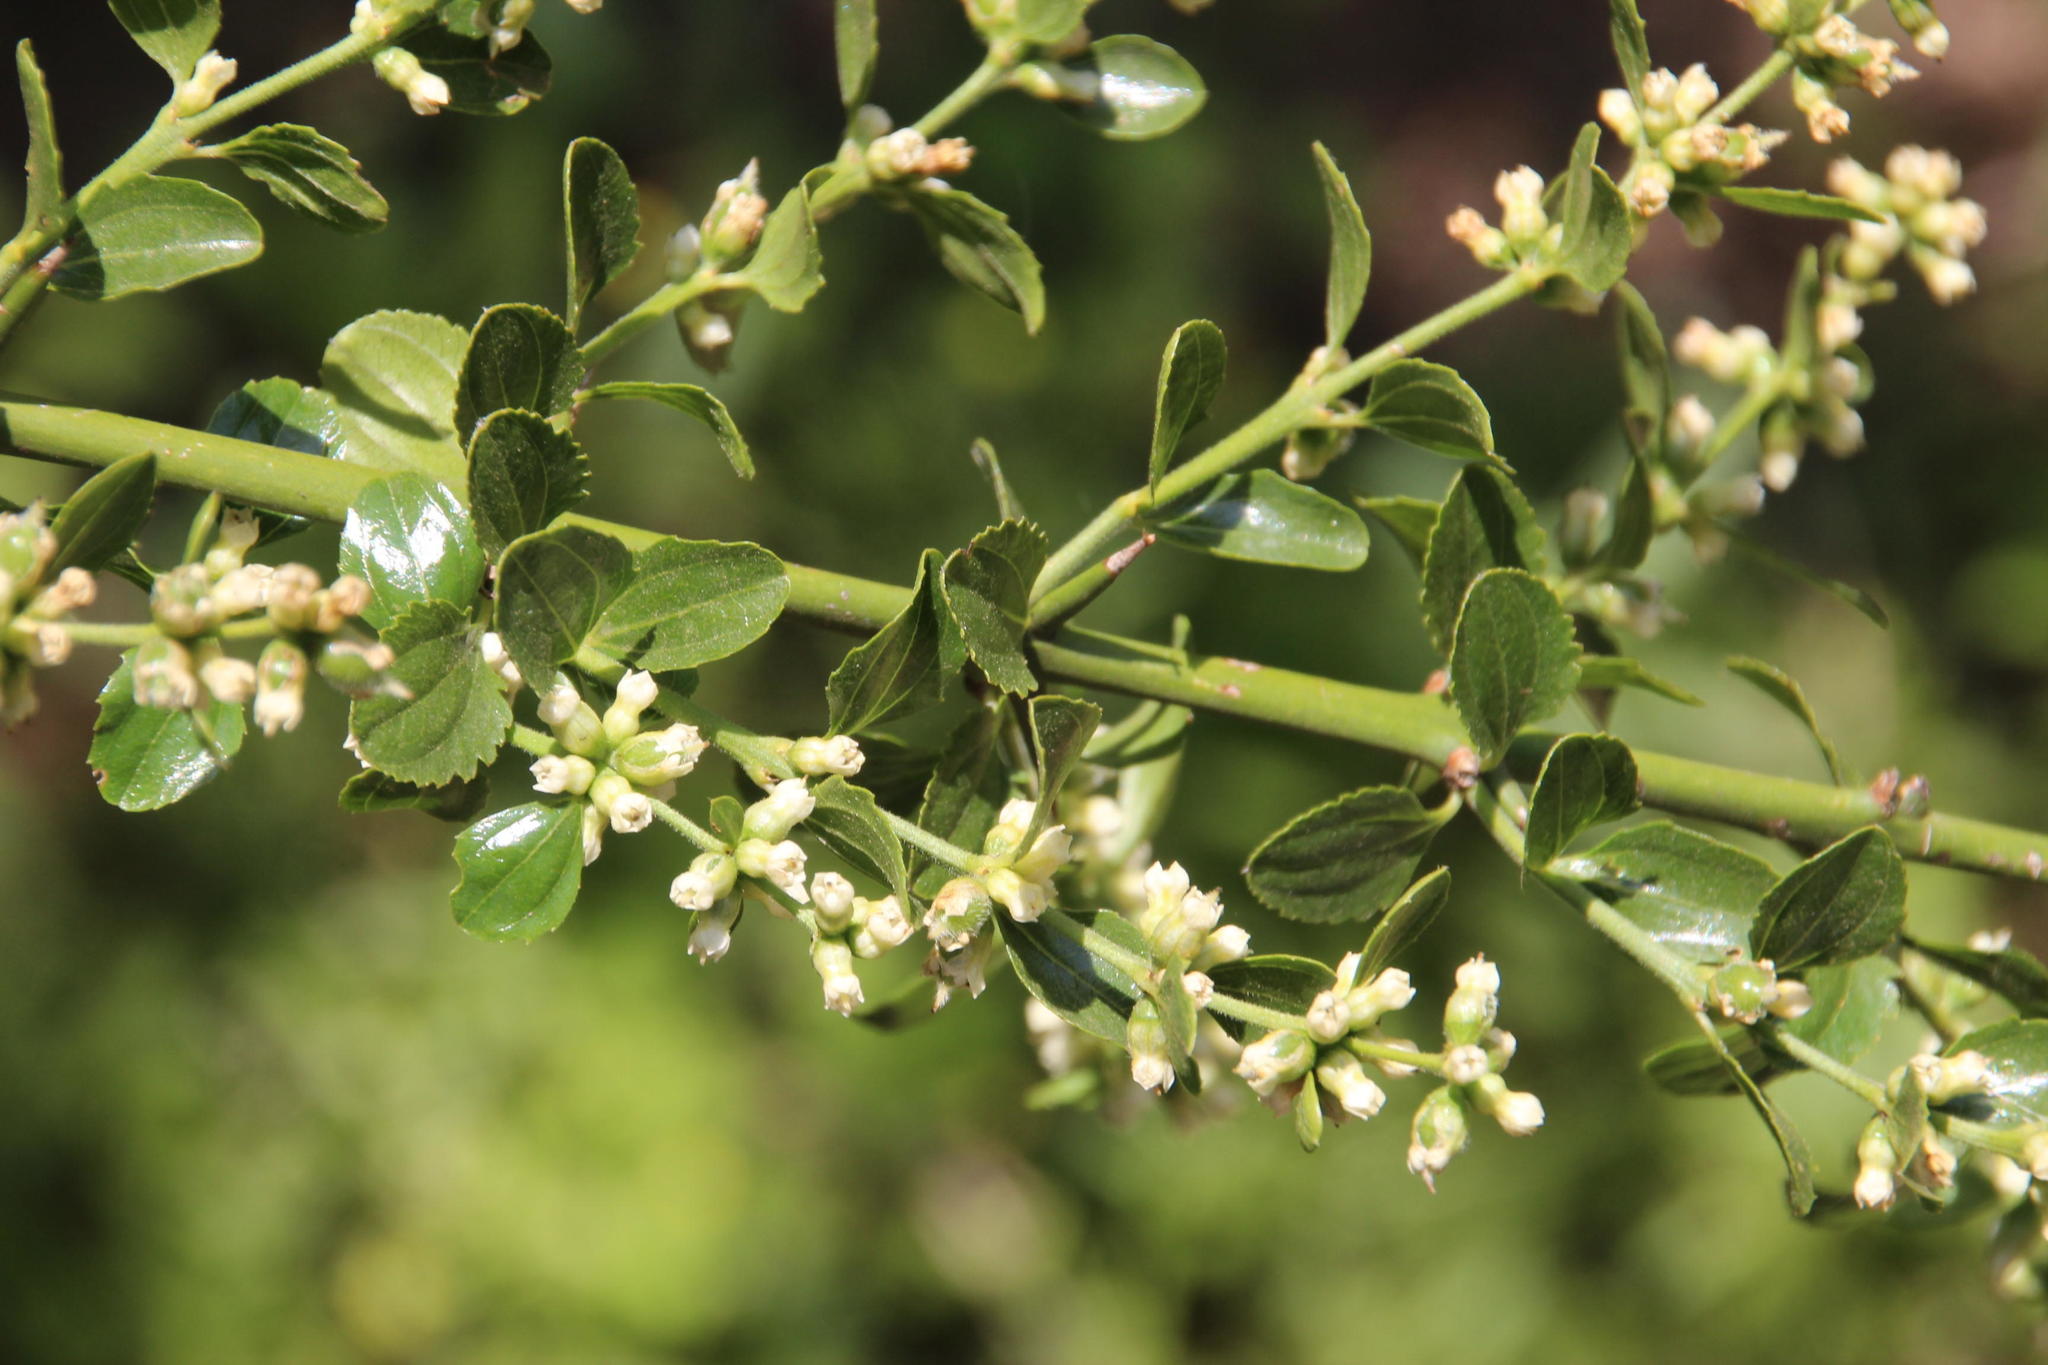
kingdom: Plantae
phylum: Tracheophyta
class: Magnoliopsida
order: Rosales
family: Rhamnaceae
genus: Retanilla
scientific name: Retanilla trinervia
